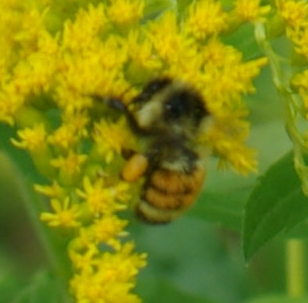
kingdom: Animalia
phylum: Arthropoda
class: Insecta
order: Hymenoptera
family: Apidae
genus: Bombus
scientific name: Bombus ternarius
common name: Tri-colored bumble bee
